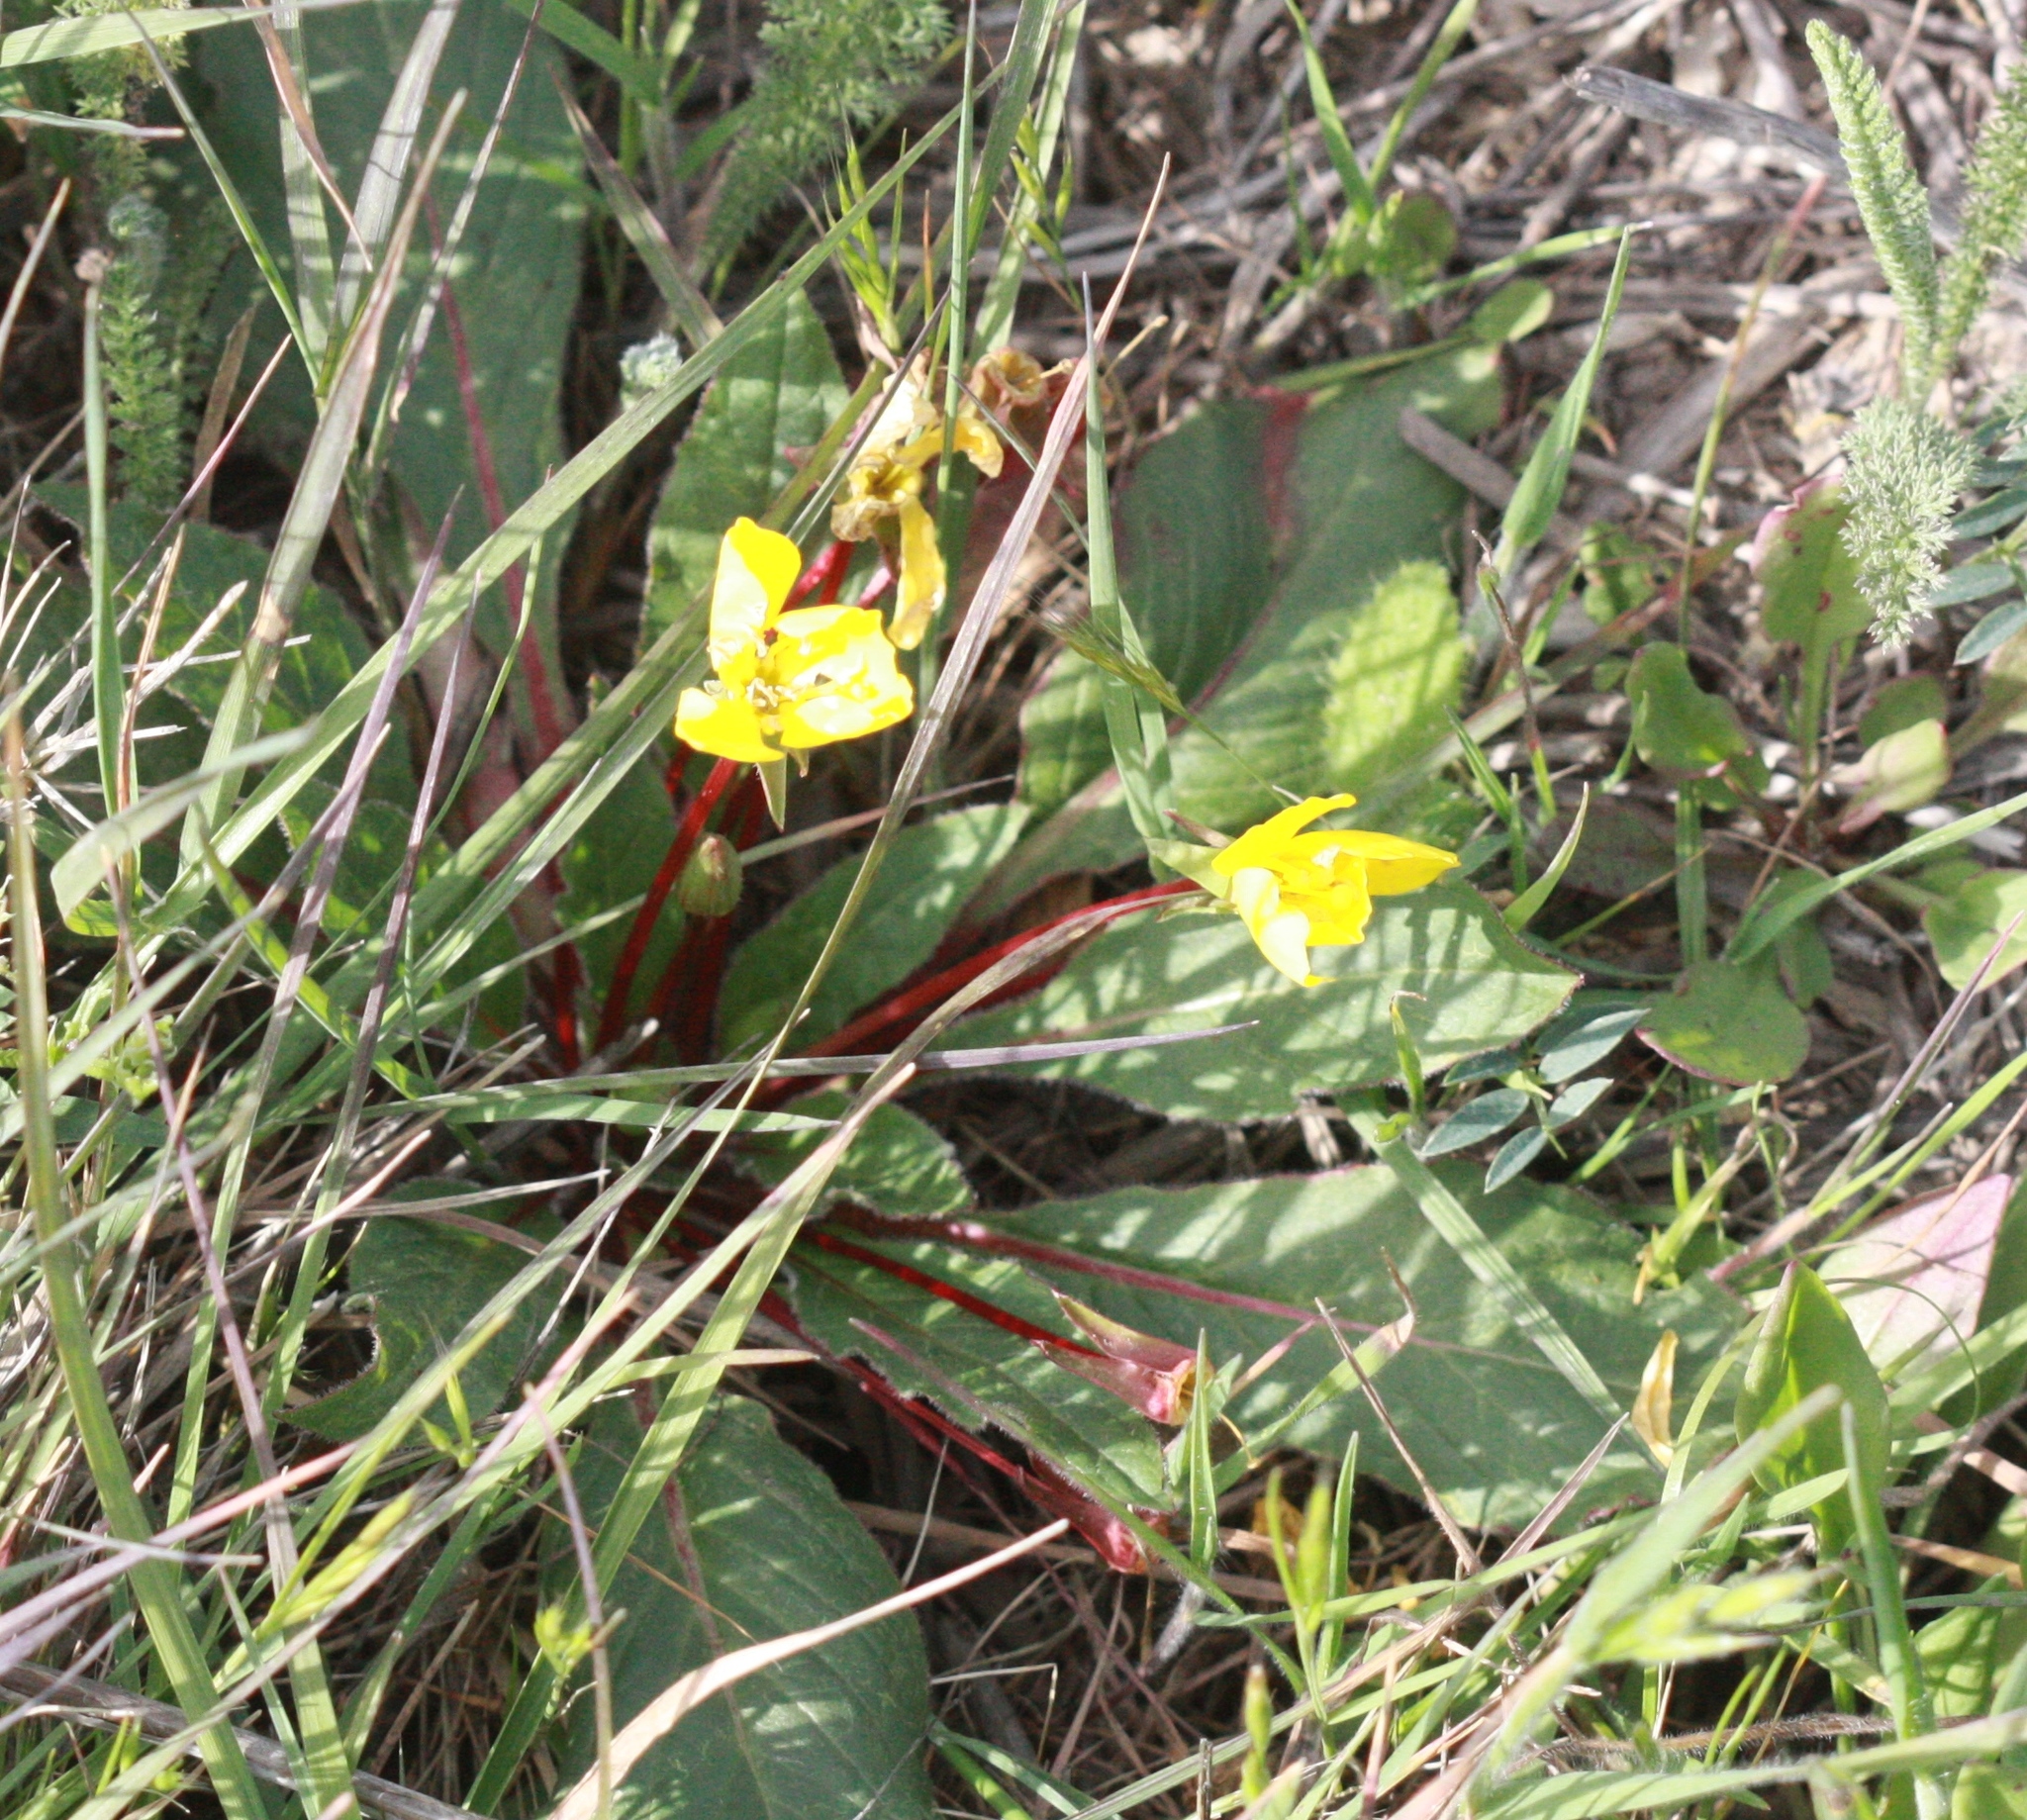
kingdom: Plantae
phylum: Tracheophyta
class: Magnoliopsida
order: Myrtales
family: Onagraceae
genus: Taraxia
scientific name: Taraxia ovata
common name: Goldeneggs
